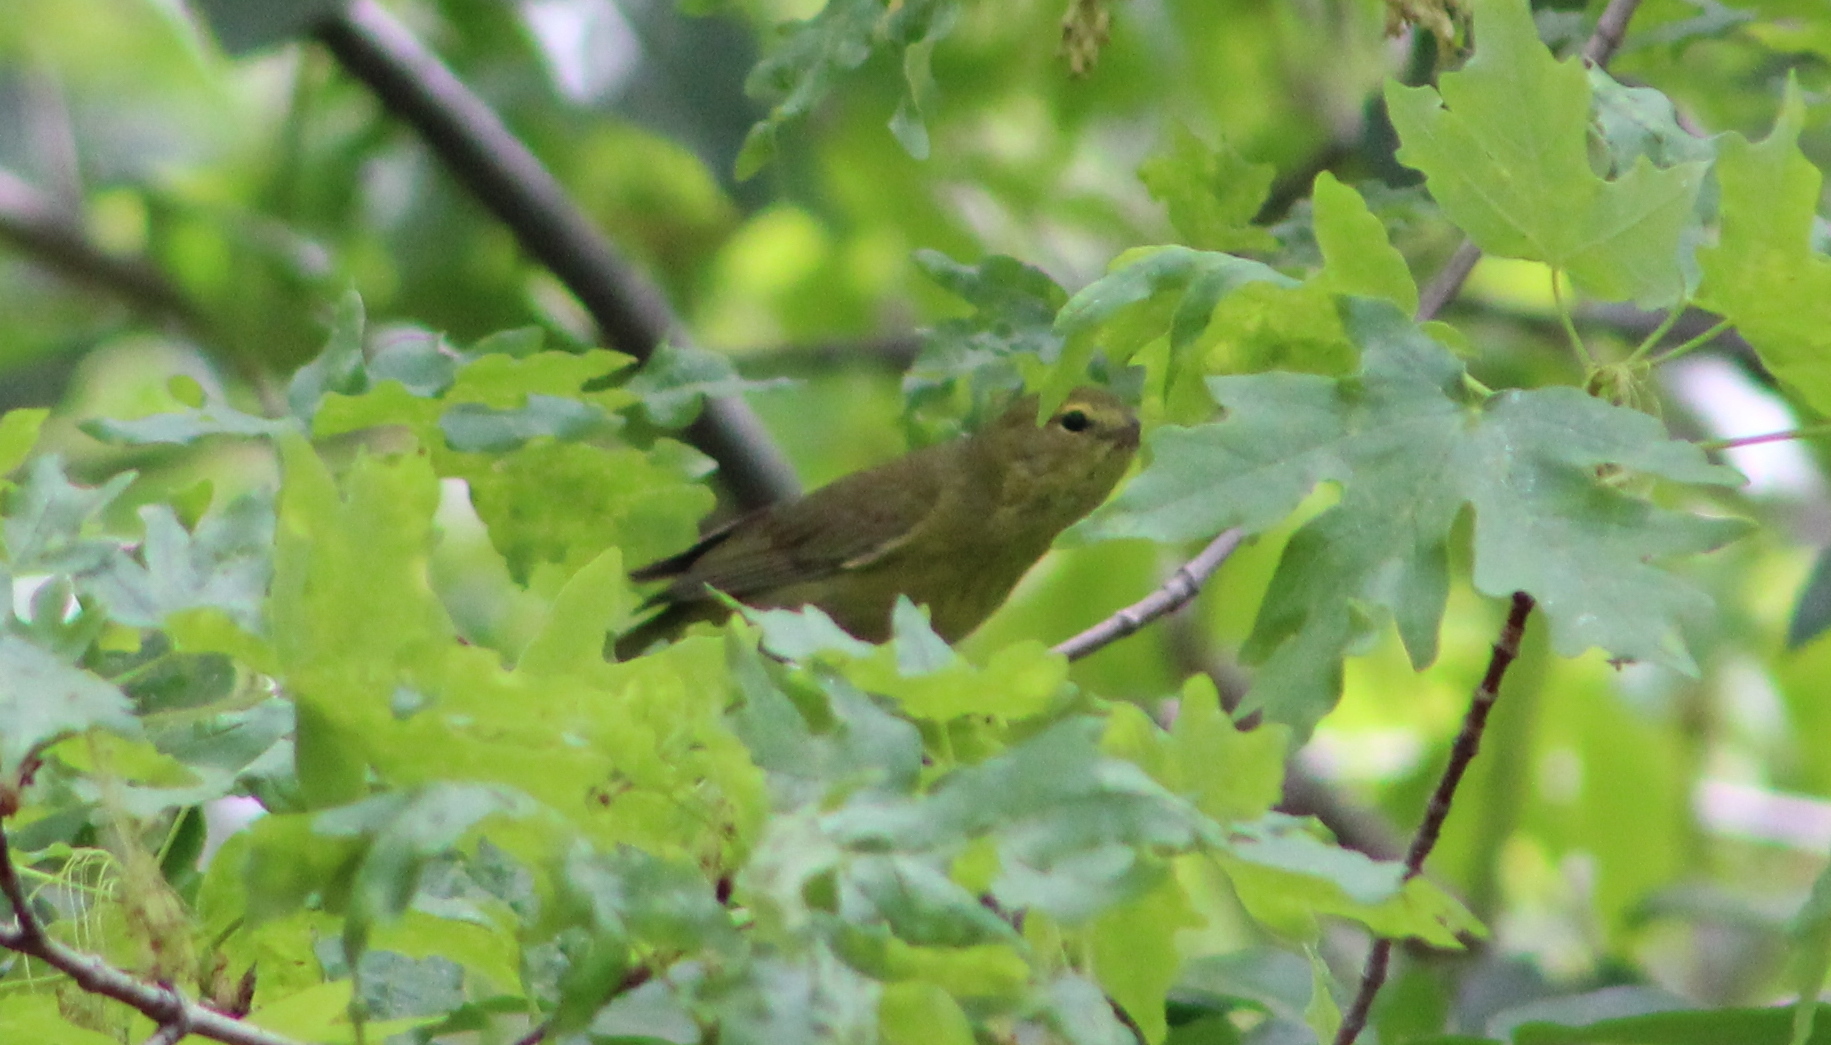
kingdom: Animalia
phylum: Chordata
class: Aves
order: Passeriformes
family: Parulidae
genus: Leiothlypis
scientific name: Leiothlypis celata
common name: Orange-crowned warbler
